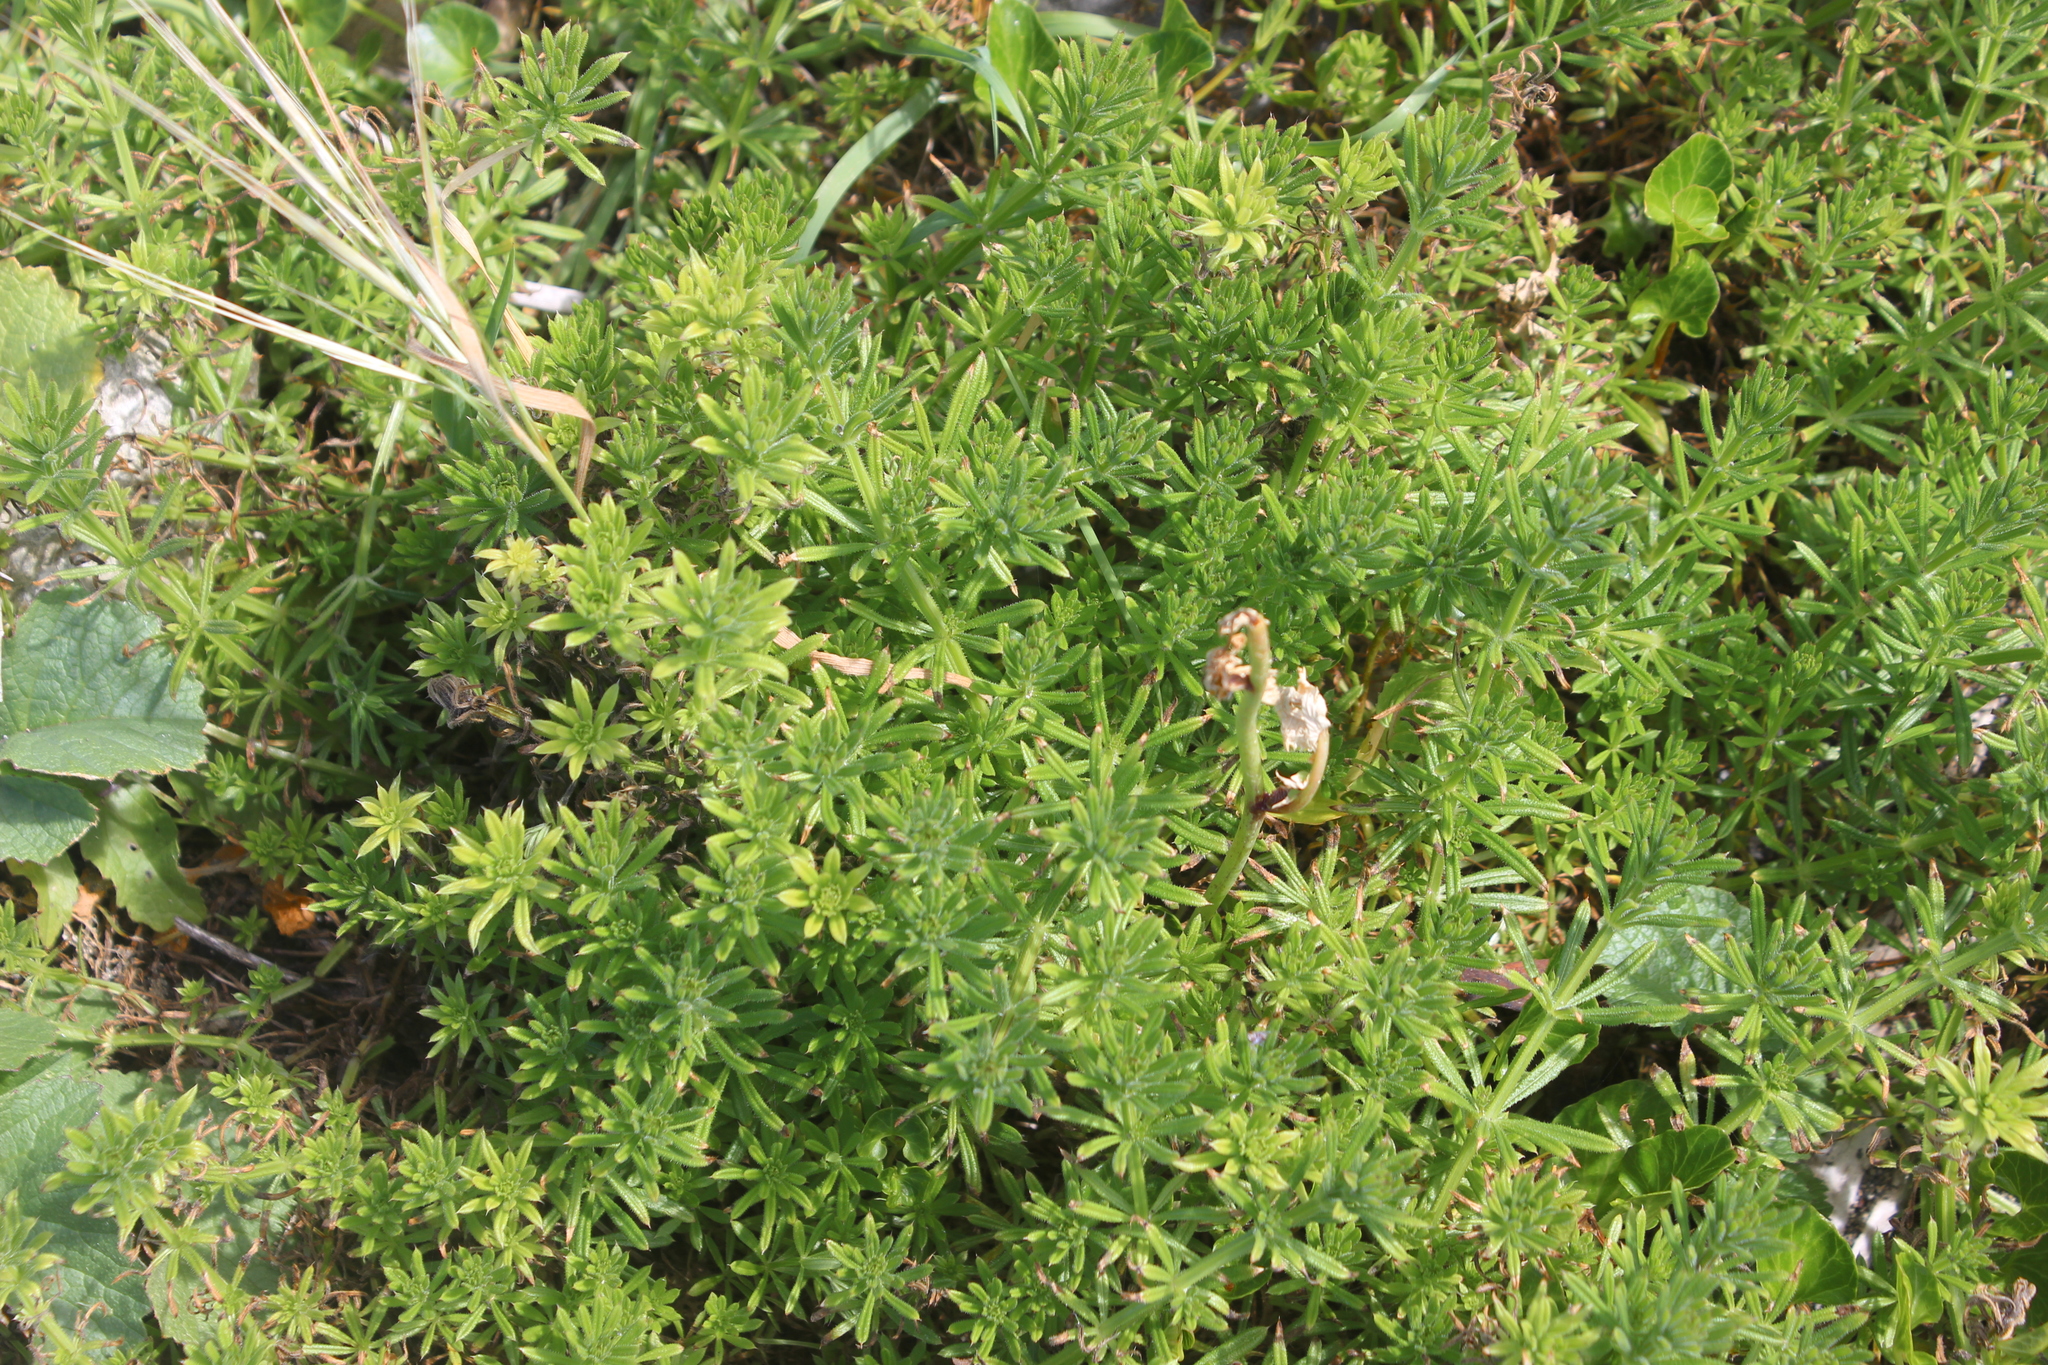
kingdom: Plantae
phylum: Tracheophyta
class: Magnoliopsida
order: Gentianales
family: Rubiaceae
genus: Galium
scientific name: Galium aparine
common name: Cleavers
